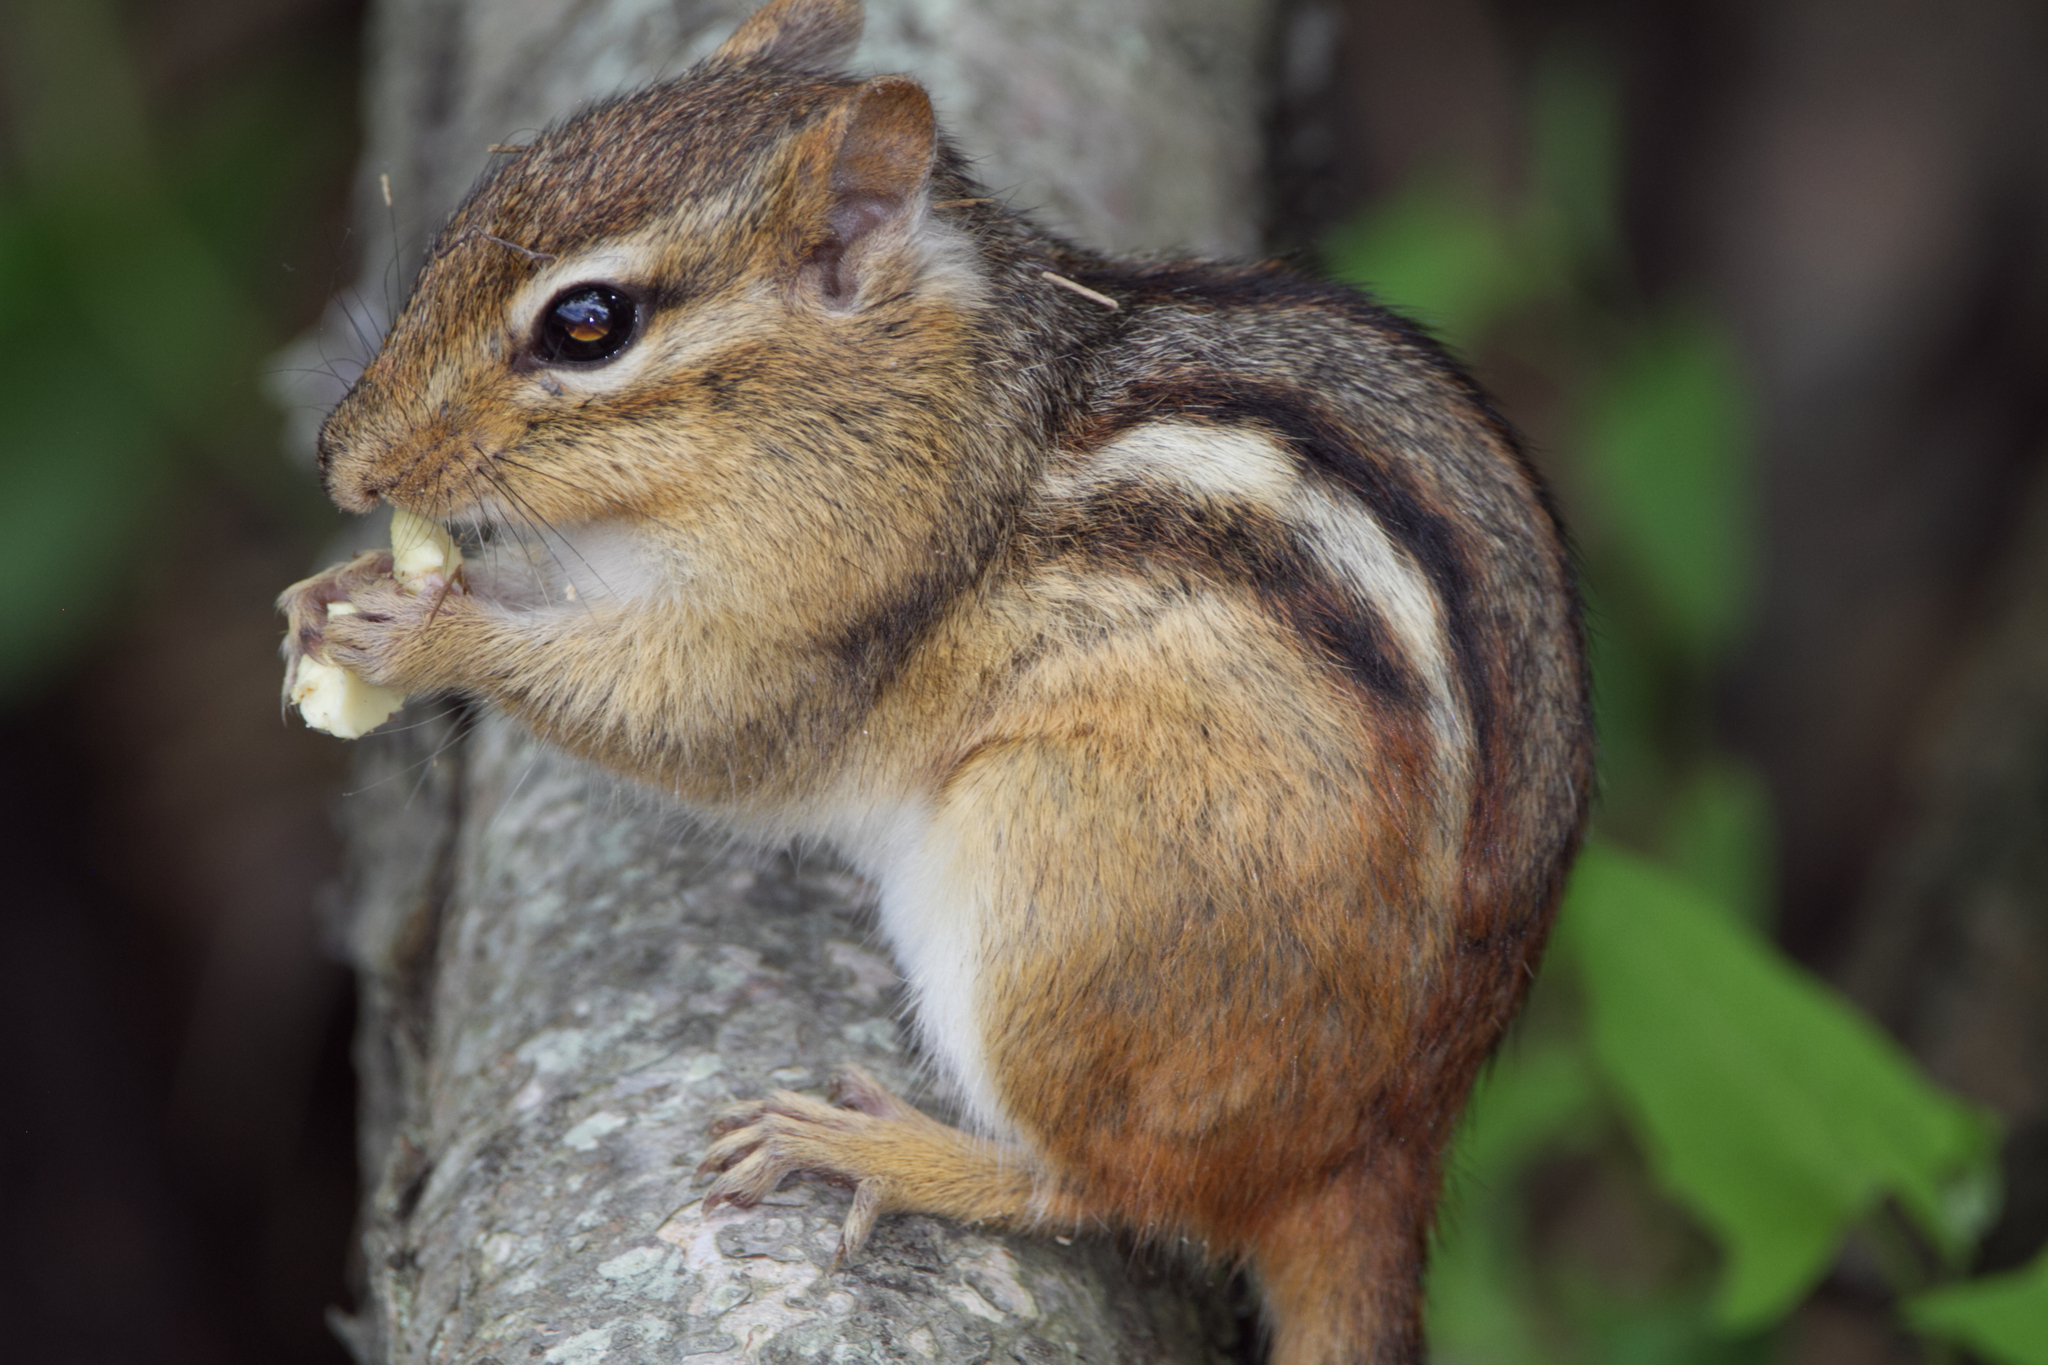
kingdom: Animalia
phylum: Chordata
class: Mammalia
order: Rodentia
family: Sciuridae
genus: Tamias
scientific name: Tamias striatus
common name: Eastern chipmunk
